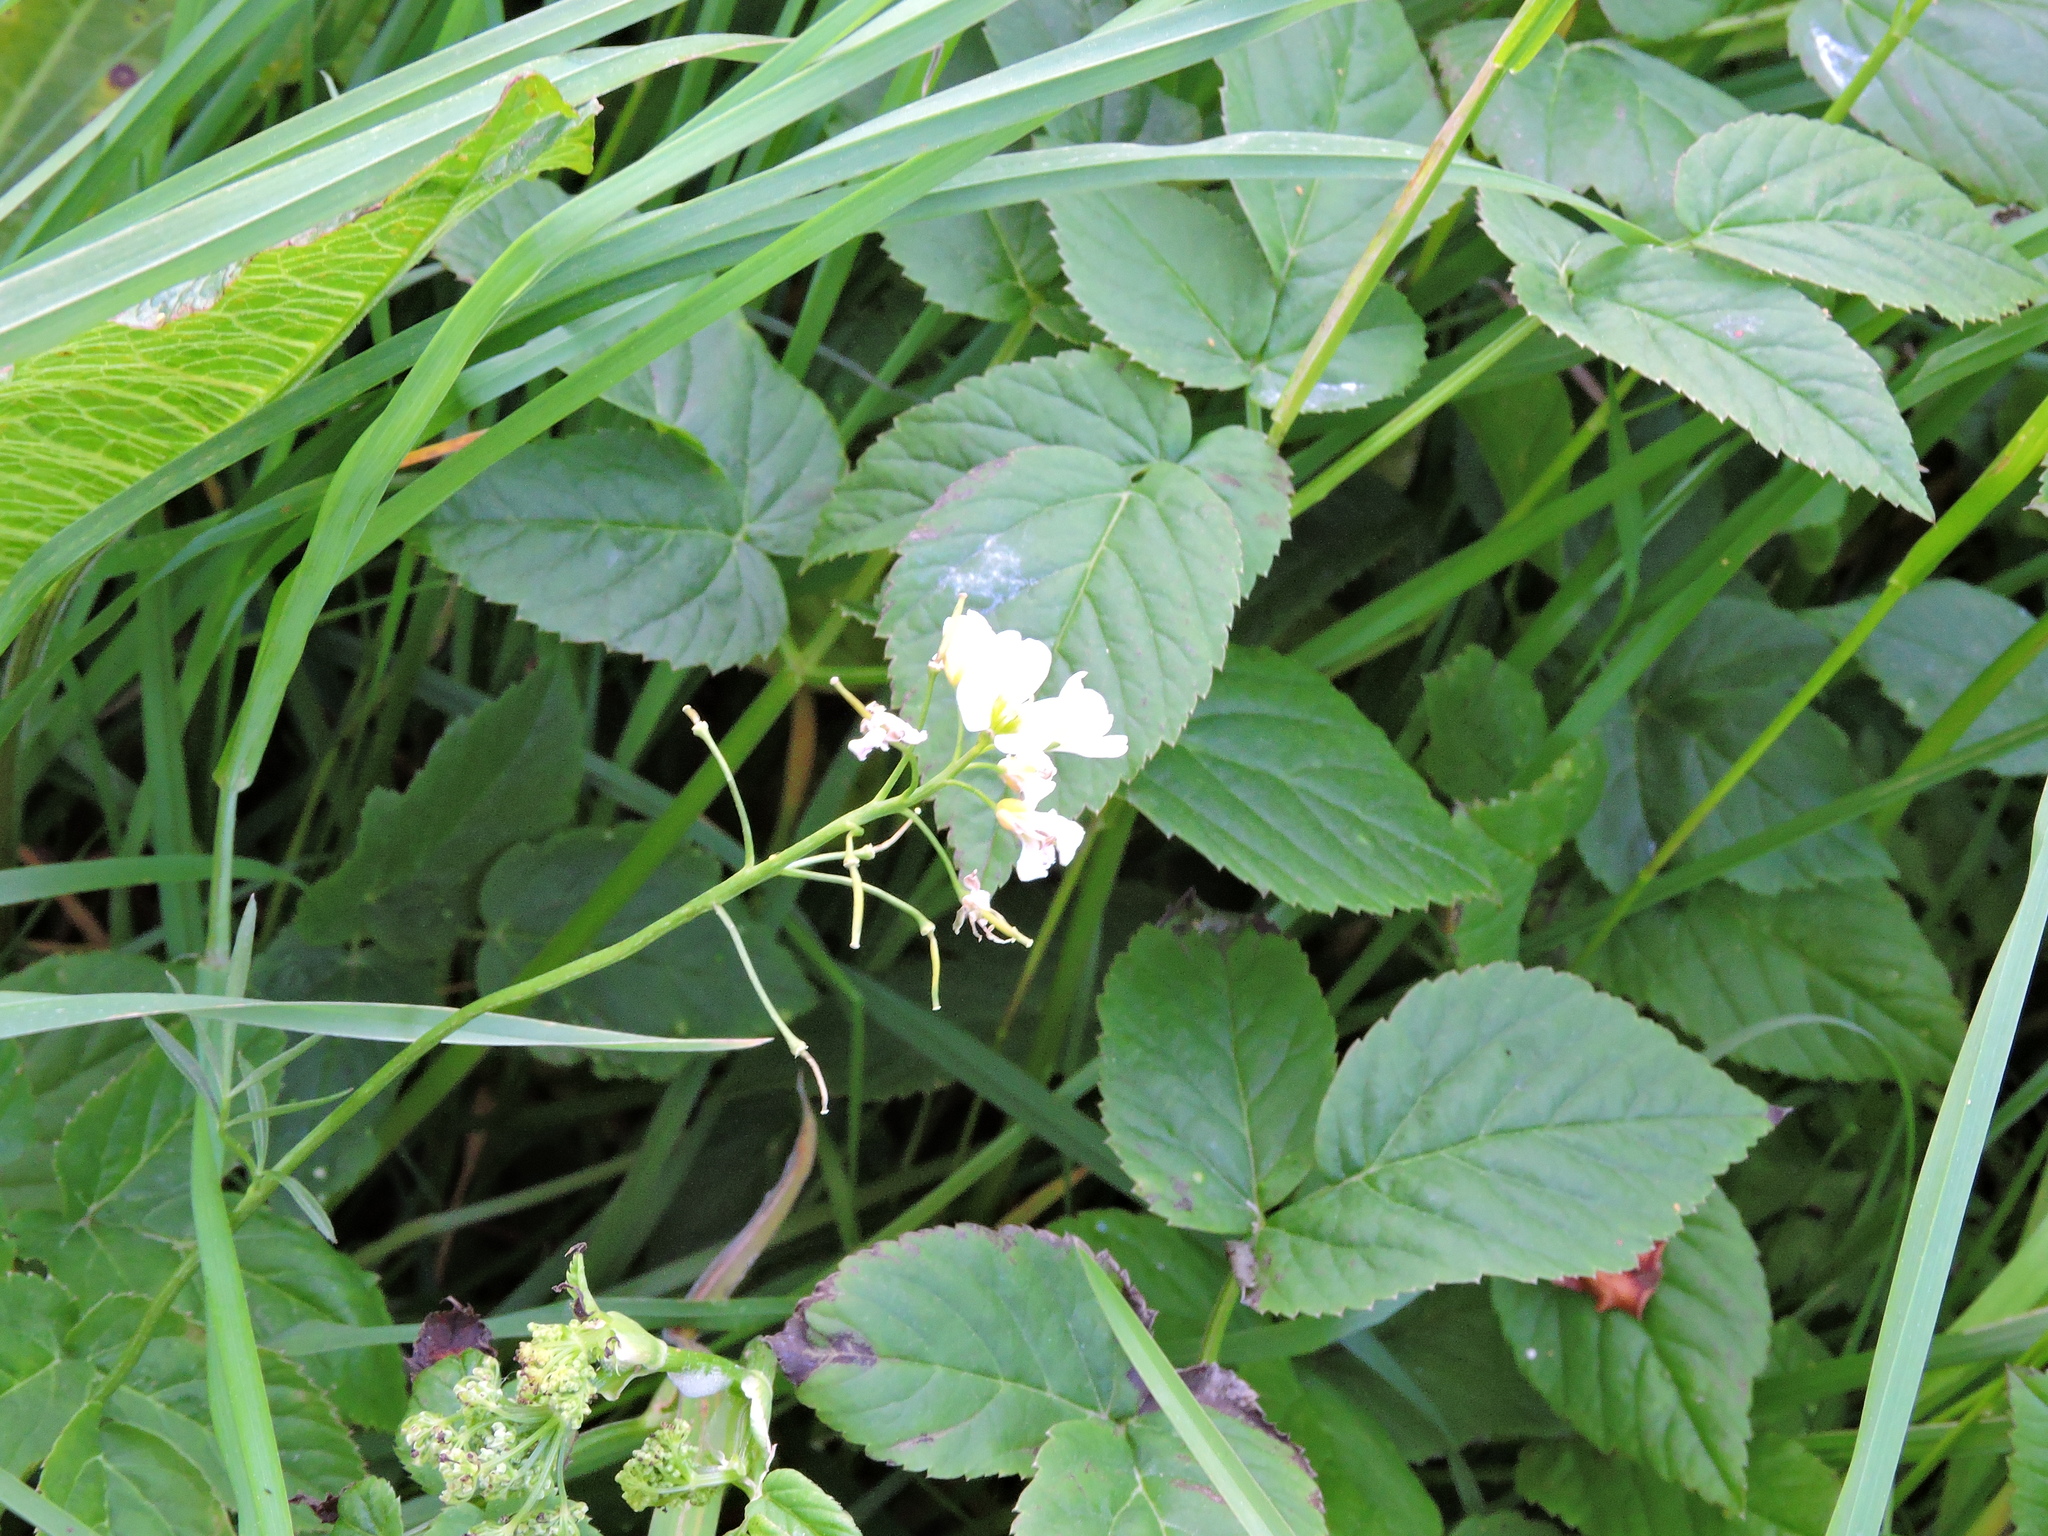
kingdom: Plantae
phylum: Tracheophyta
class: Magnoliopsida
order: Brassicales
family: Brassicaceae
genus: Cardamine
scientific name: Cardamine pratensis
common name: Cuckoo flower
